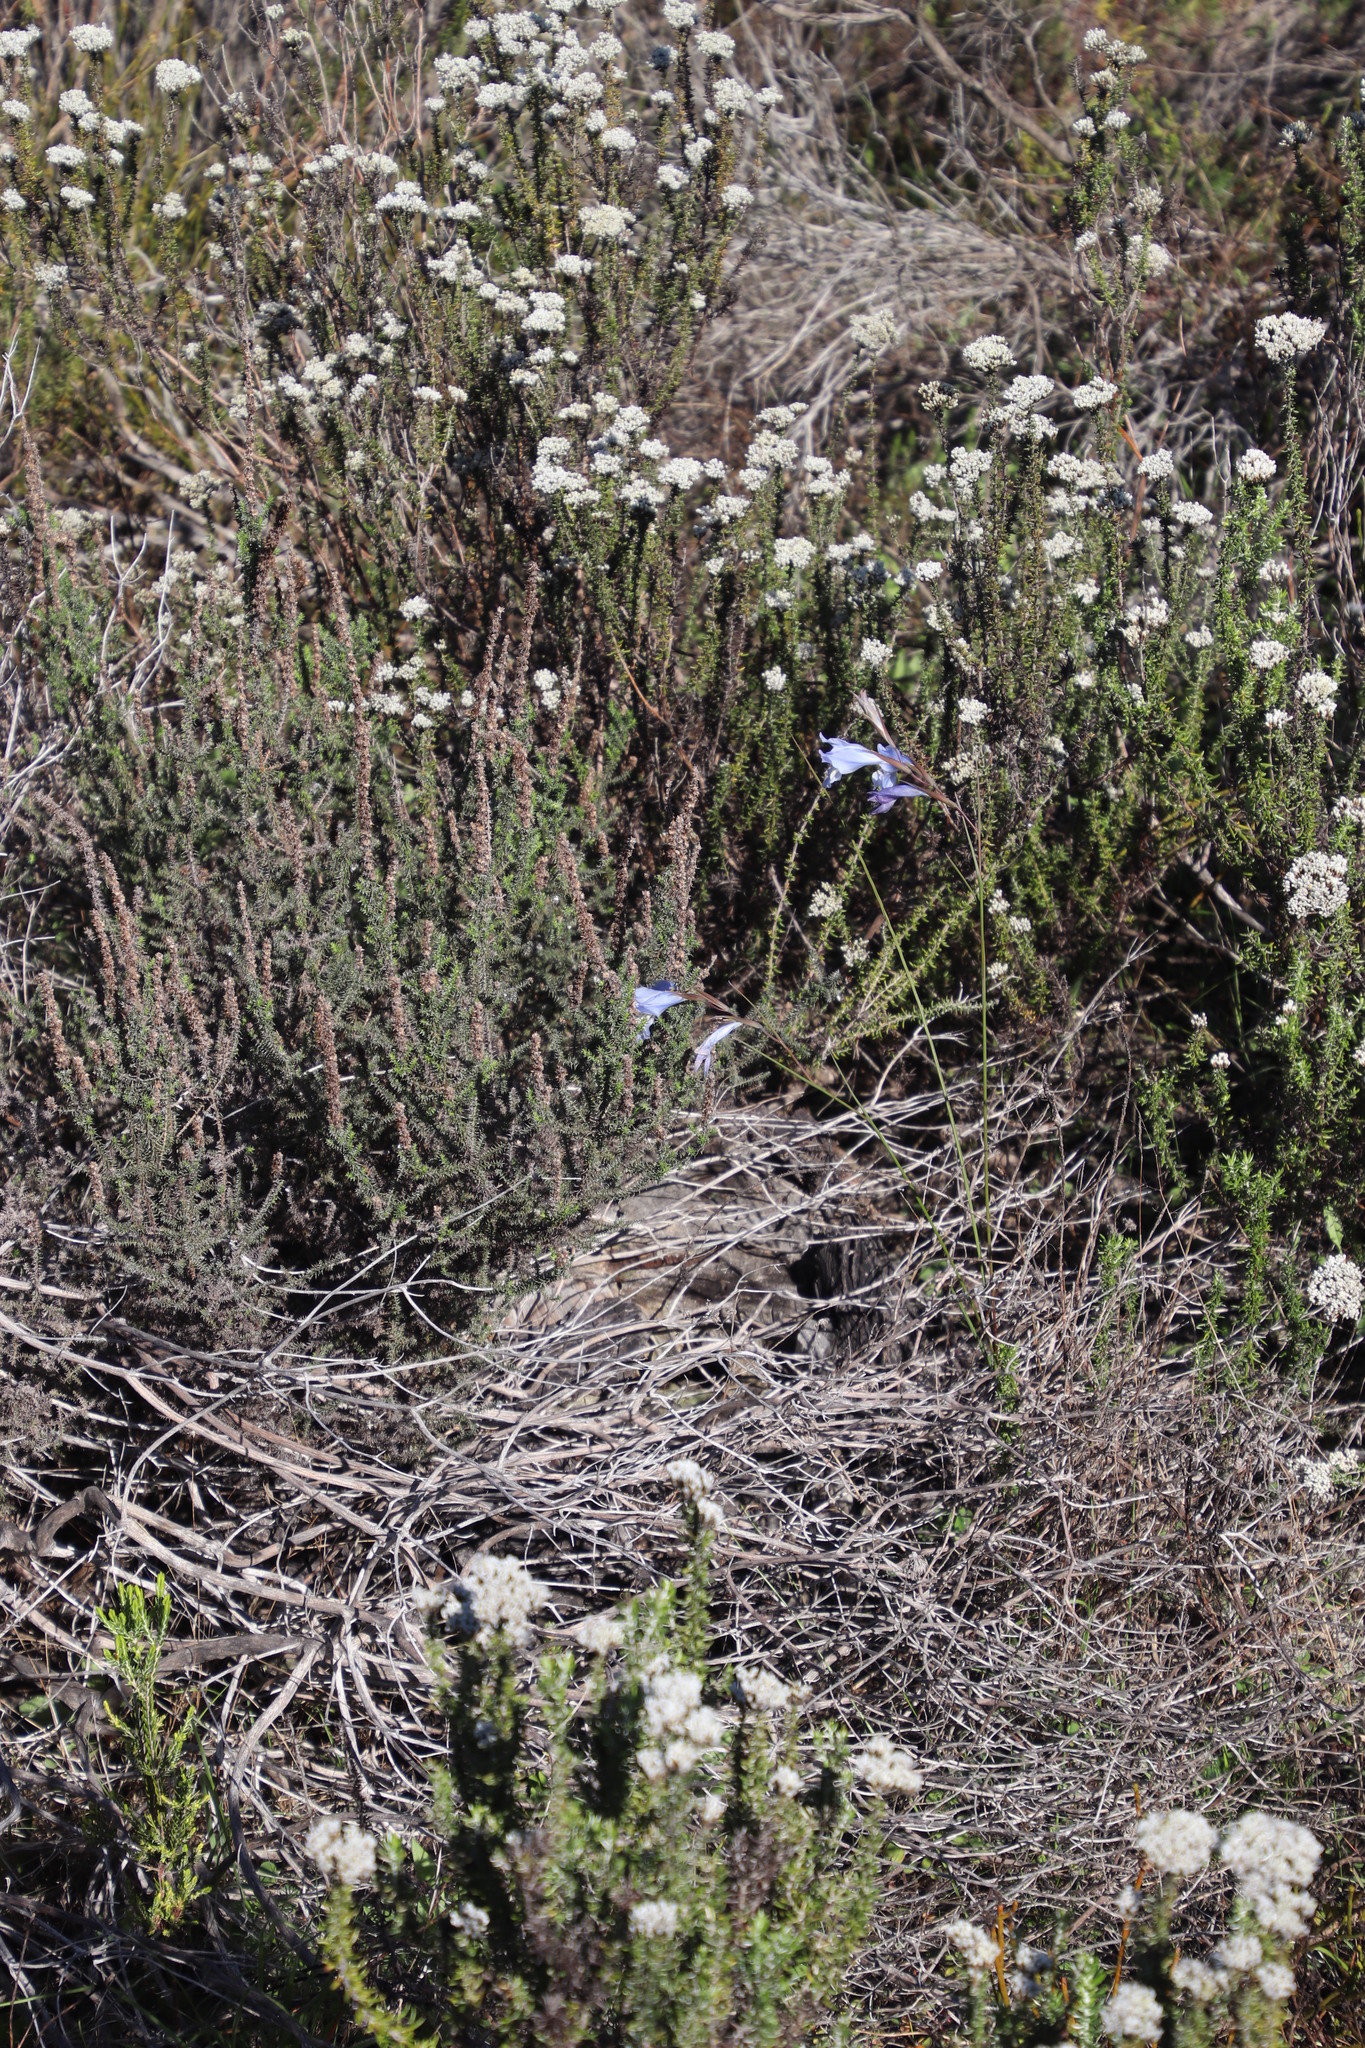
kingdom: Plantae
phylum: Tracheophyta
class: Liliopsida
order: Asparagales
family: Iridaceae
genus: Gladiolus
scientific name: Gladiolus gracilis
